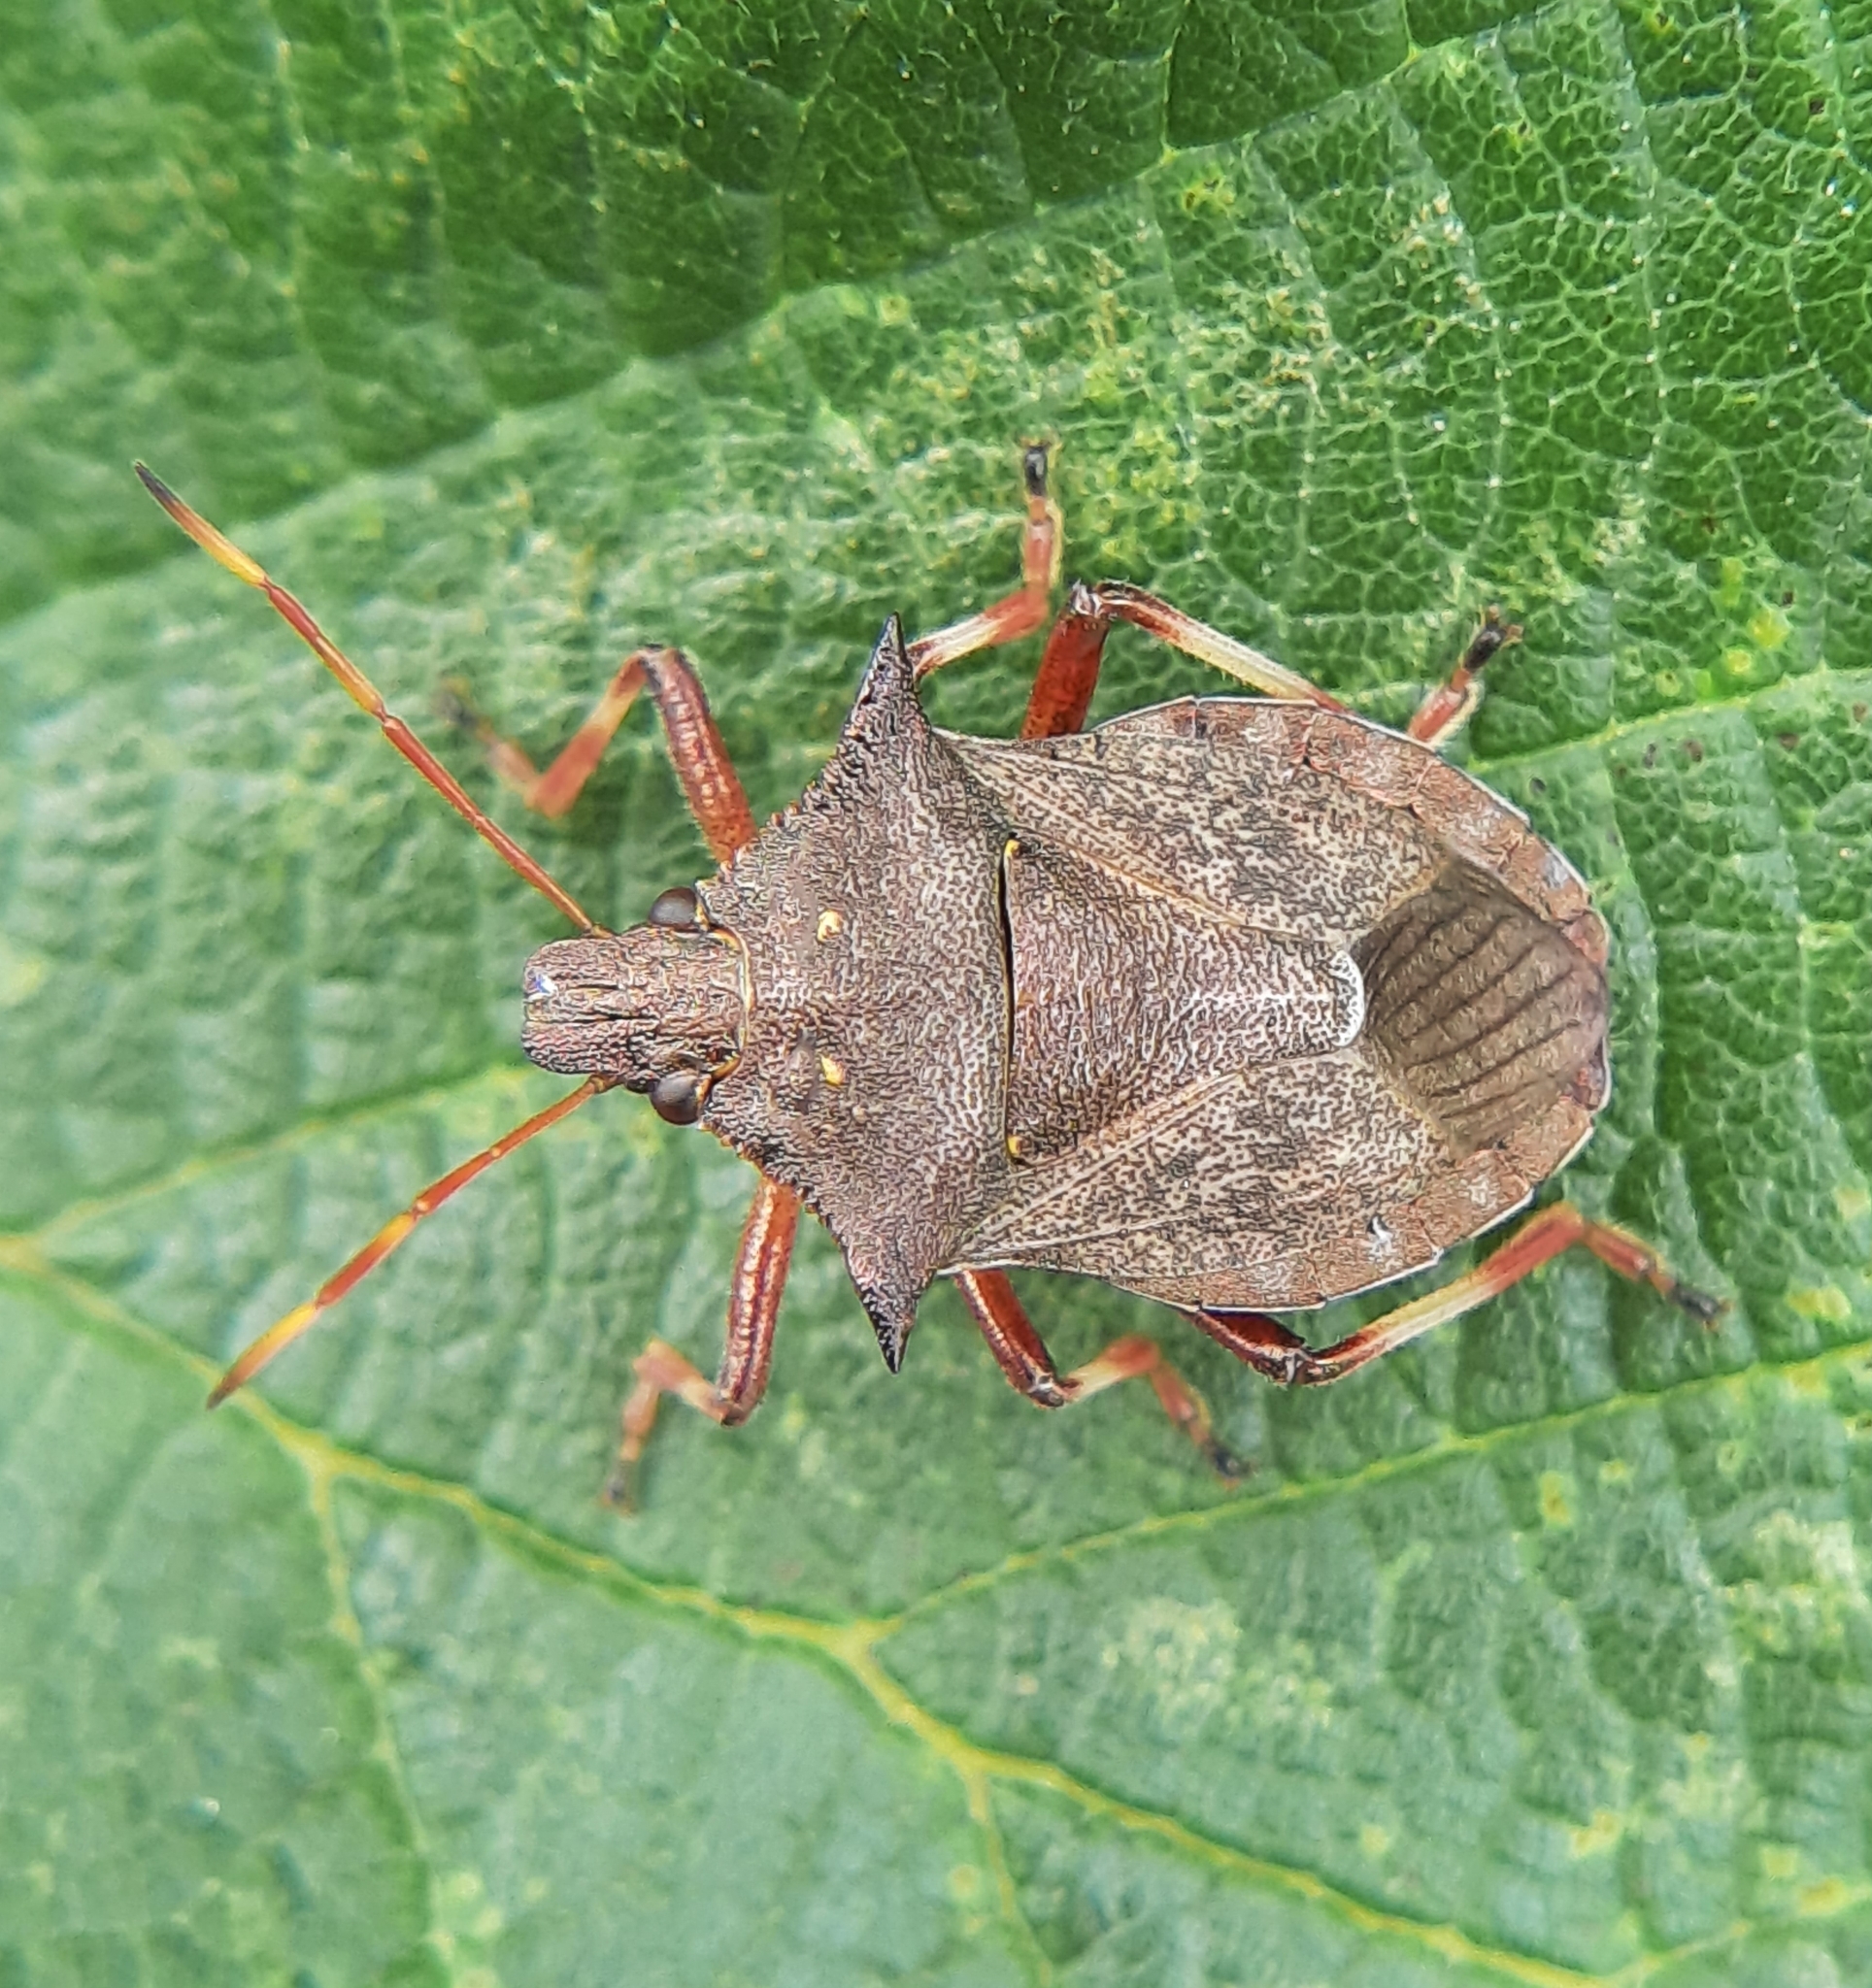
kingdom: Animalia
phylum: Arthropoda
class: Insecta
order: Hemiptera
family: Pentatomidae
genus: Picromerus
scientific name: Picromerus bidens
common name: Spiked shieldbug
